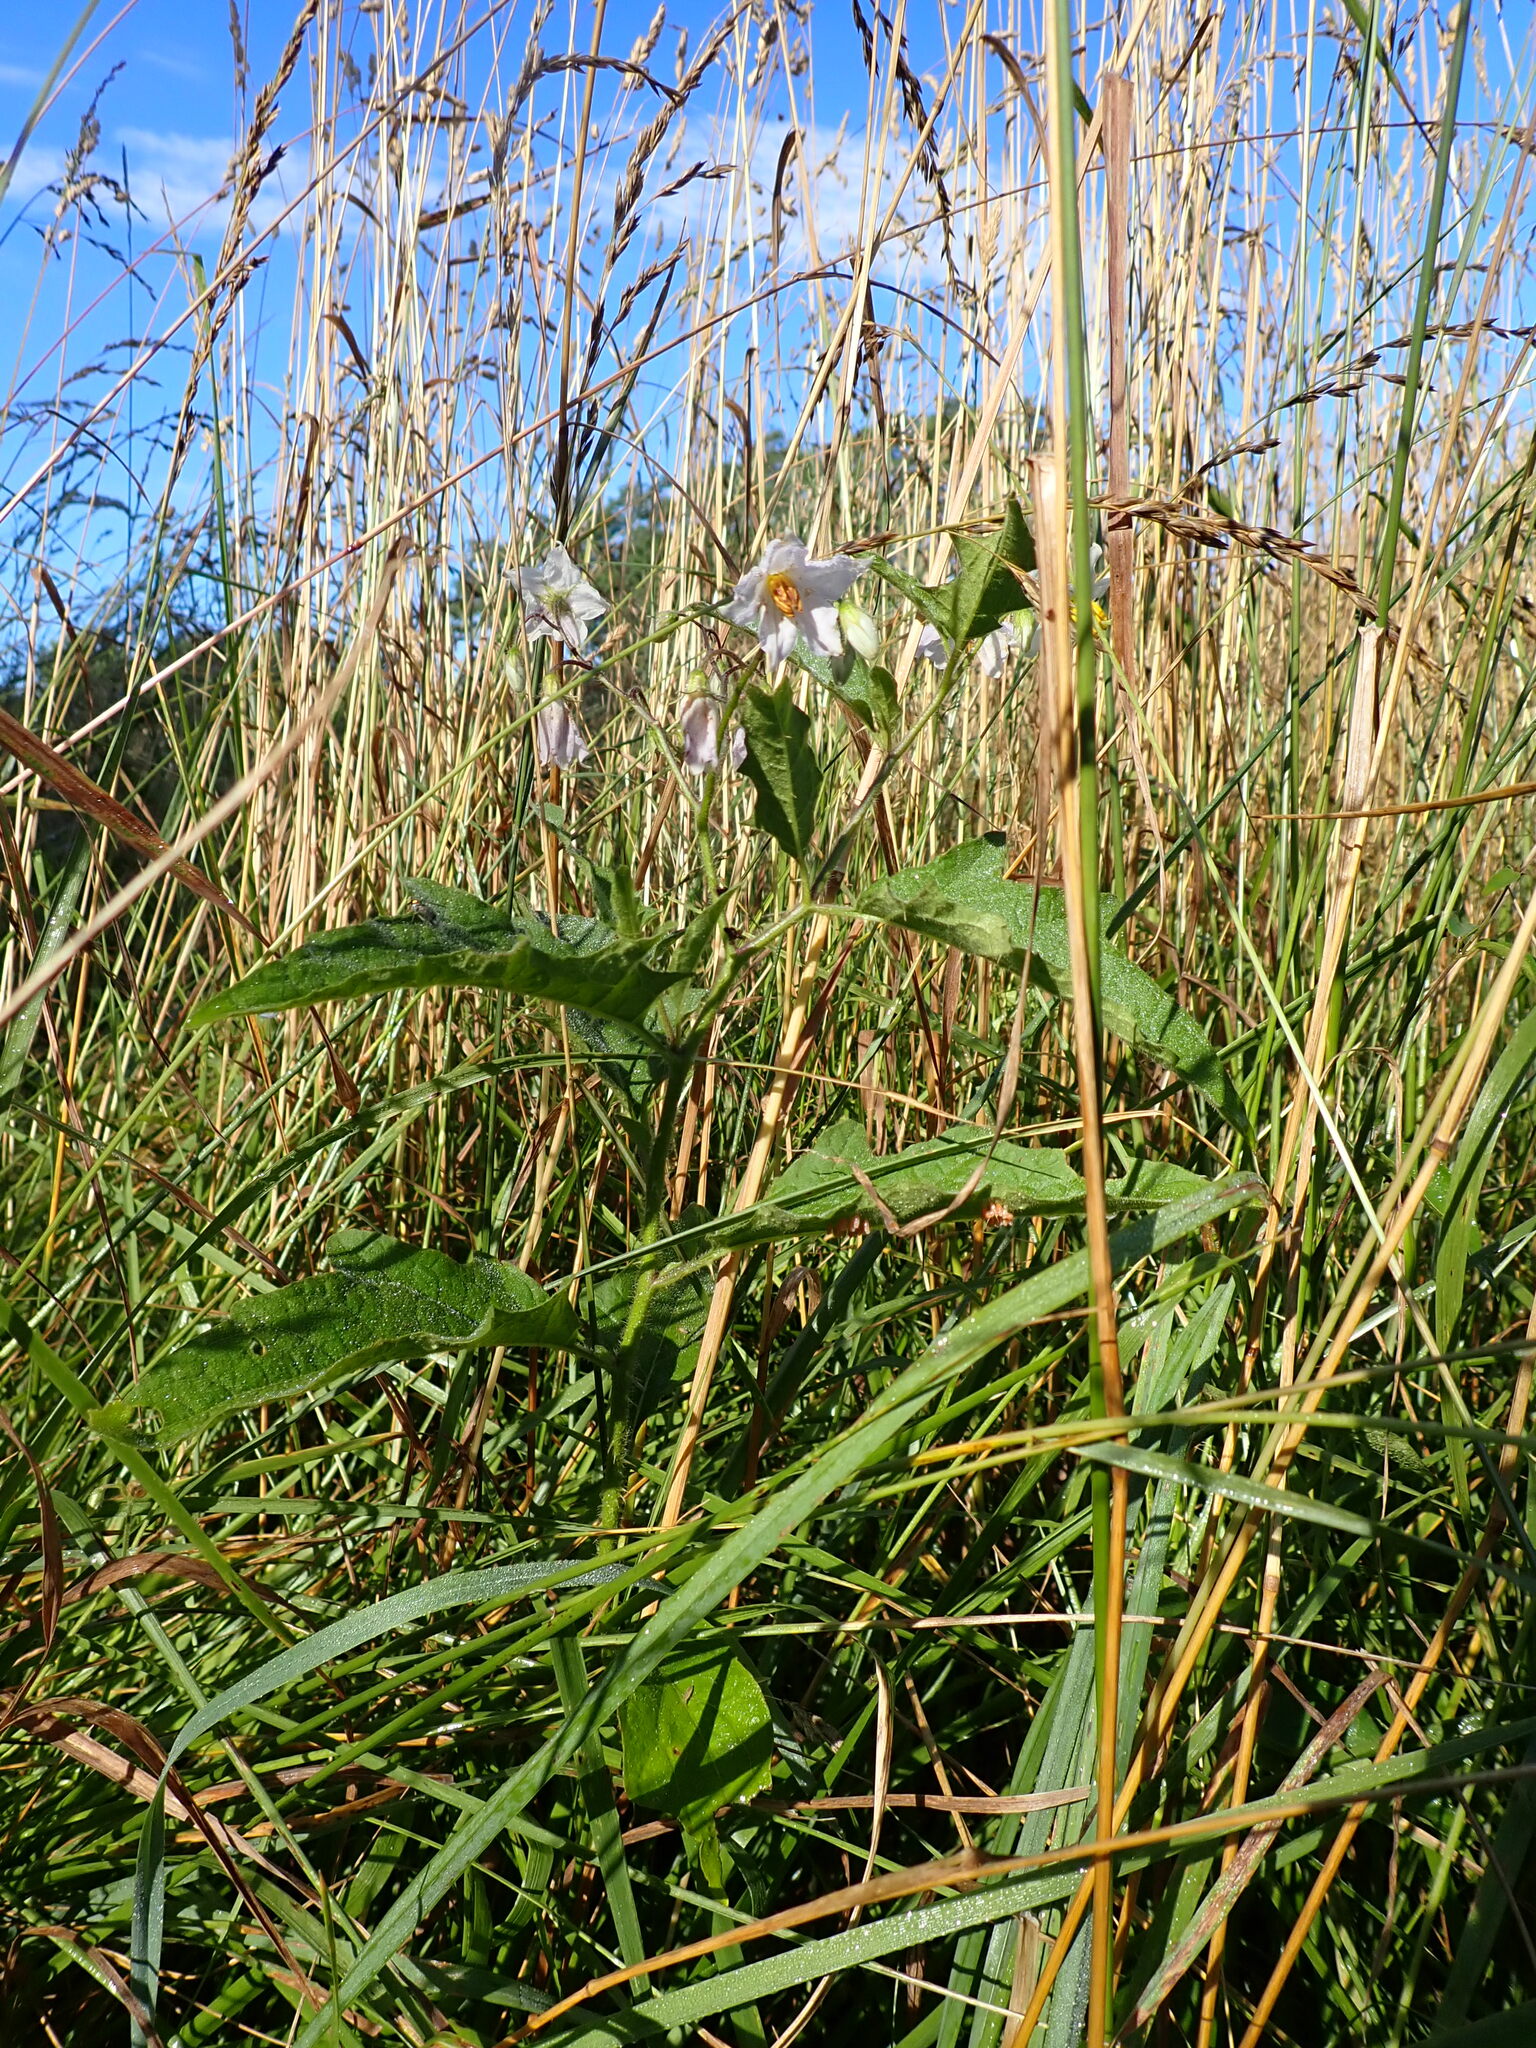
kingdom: Plantae
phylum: Tracheophyta
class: Magnoliopsida
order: Solanales
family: Solanaceae
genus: Solanum
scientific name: Solanum carolinense
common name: Horse-nettle
